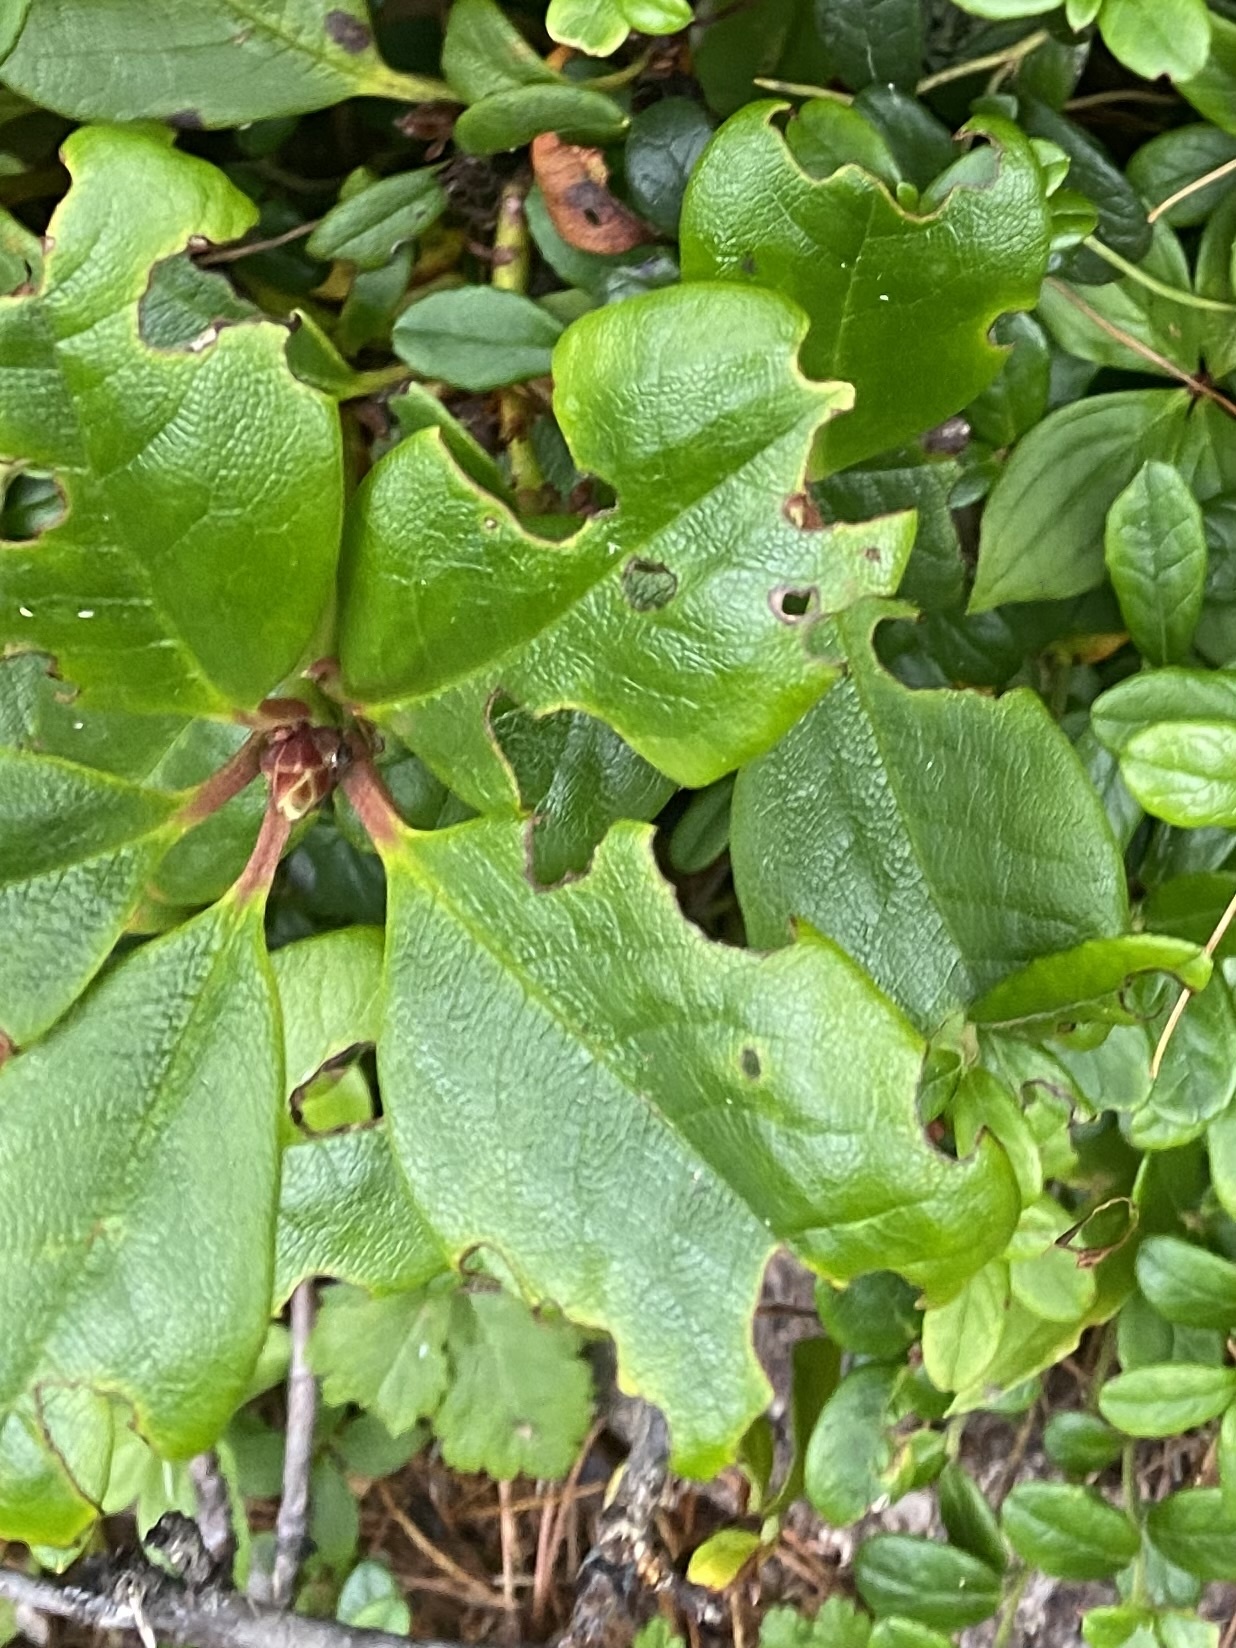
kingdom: Plantae
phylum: Tracheophyta
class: Magnoliopsida
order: Ericales
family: Ericaceae
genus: Rhododendron
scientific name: Rhododendron aureum
